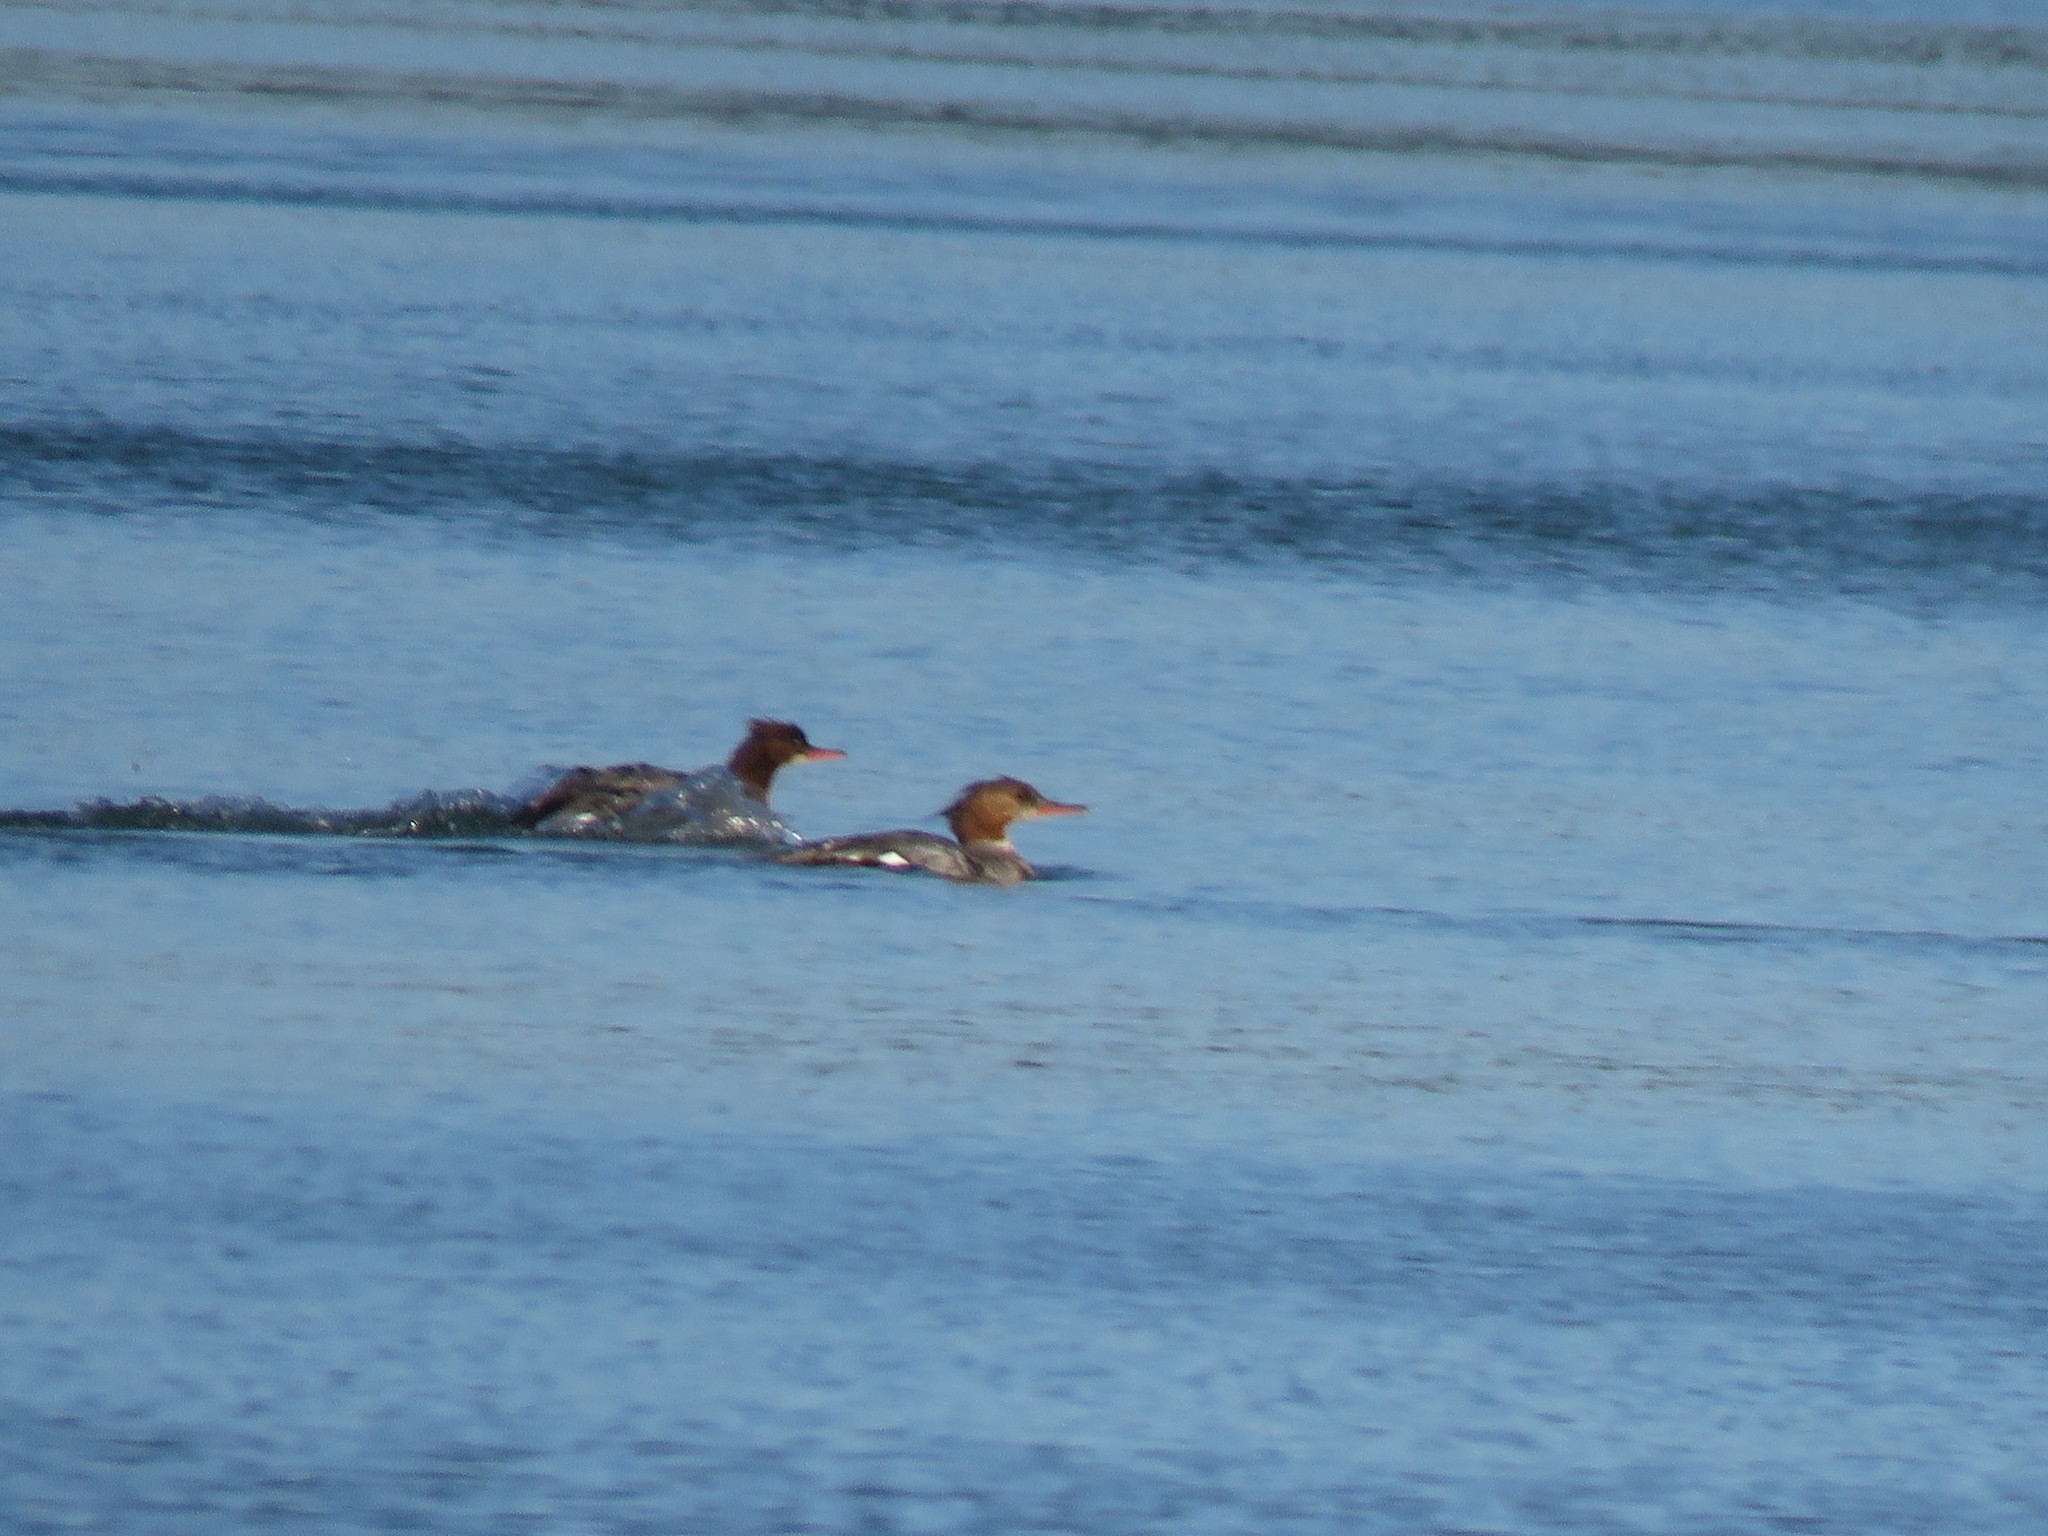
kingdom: Animalia
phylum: Chordata
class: Aves
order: Anseriformes
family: Anatidae
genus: Mergus
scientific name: Mergus merganser
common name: Common merganser
